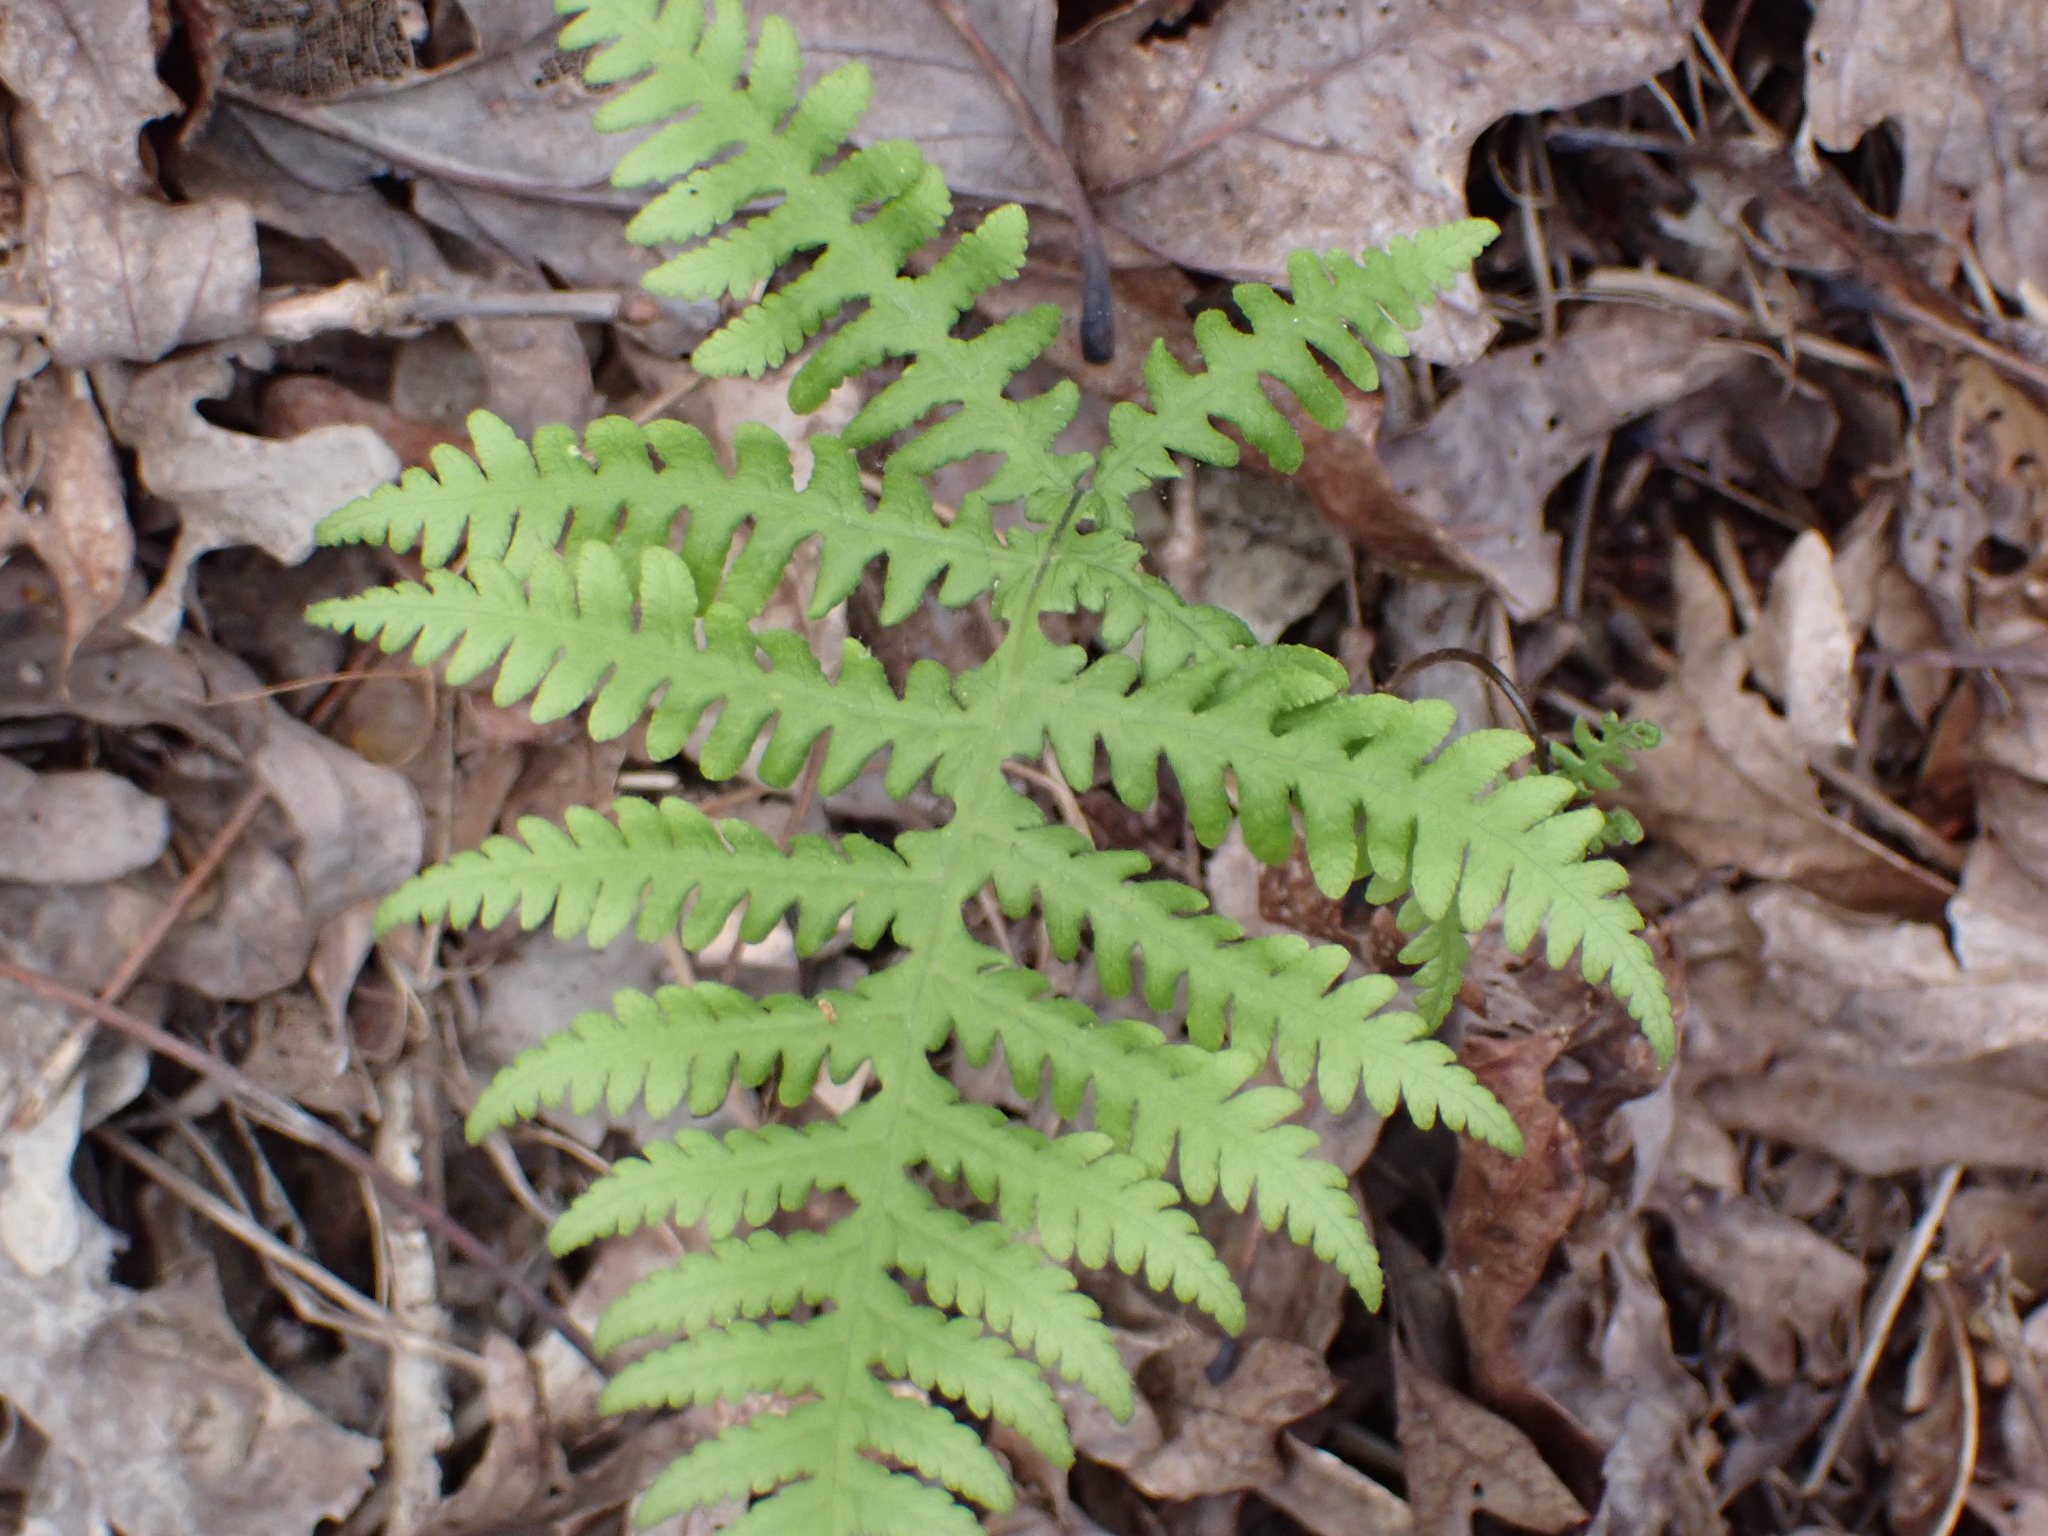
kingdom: Plantae
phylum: Tracheophyta
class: Polypodiopsida
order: Polypodiales
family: Thelypteridaceae
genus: Phegopteris
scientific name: Phegopteris hexagonoptera
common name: Broad beech fern
